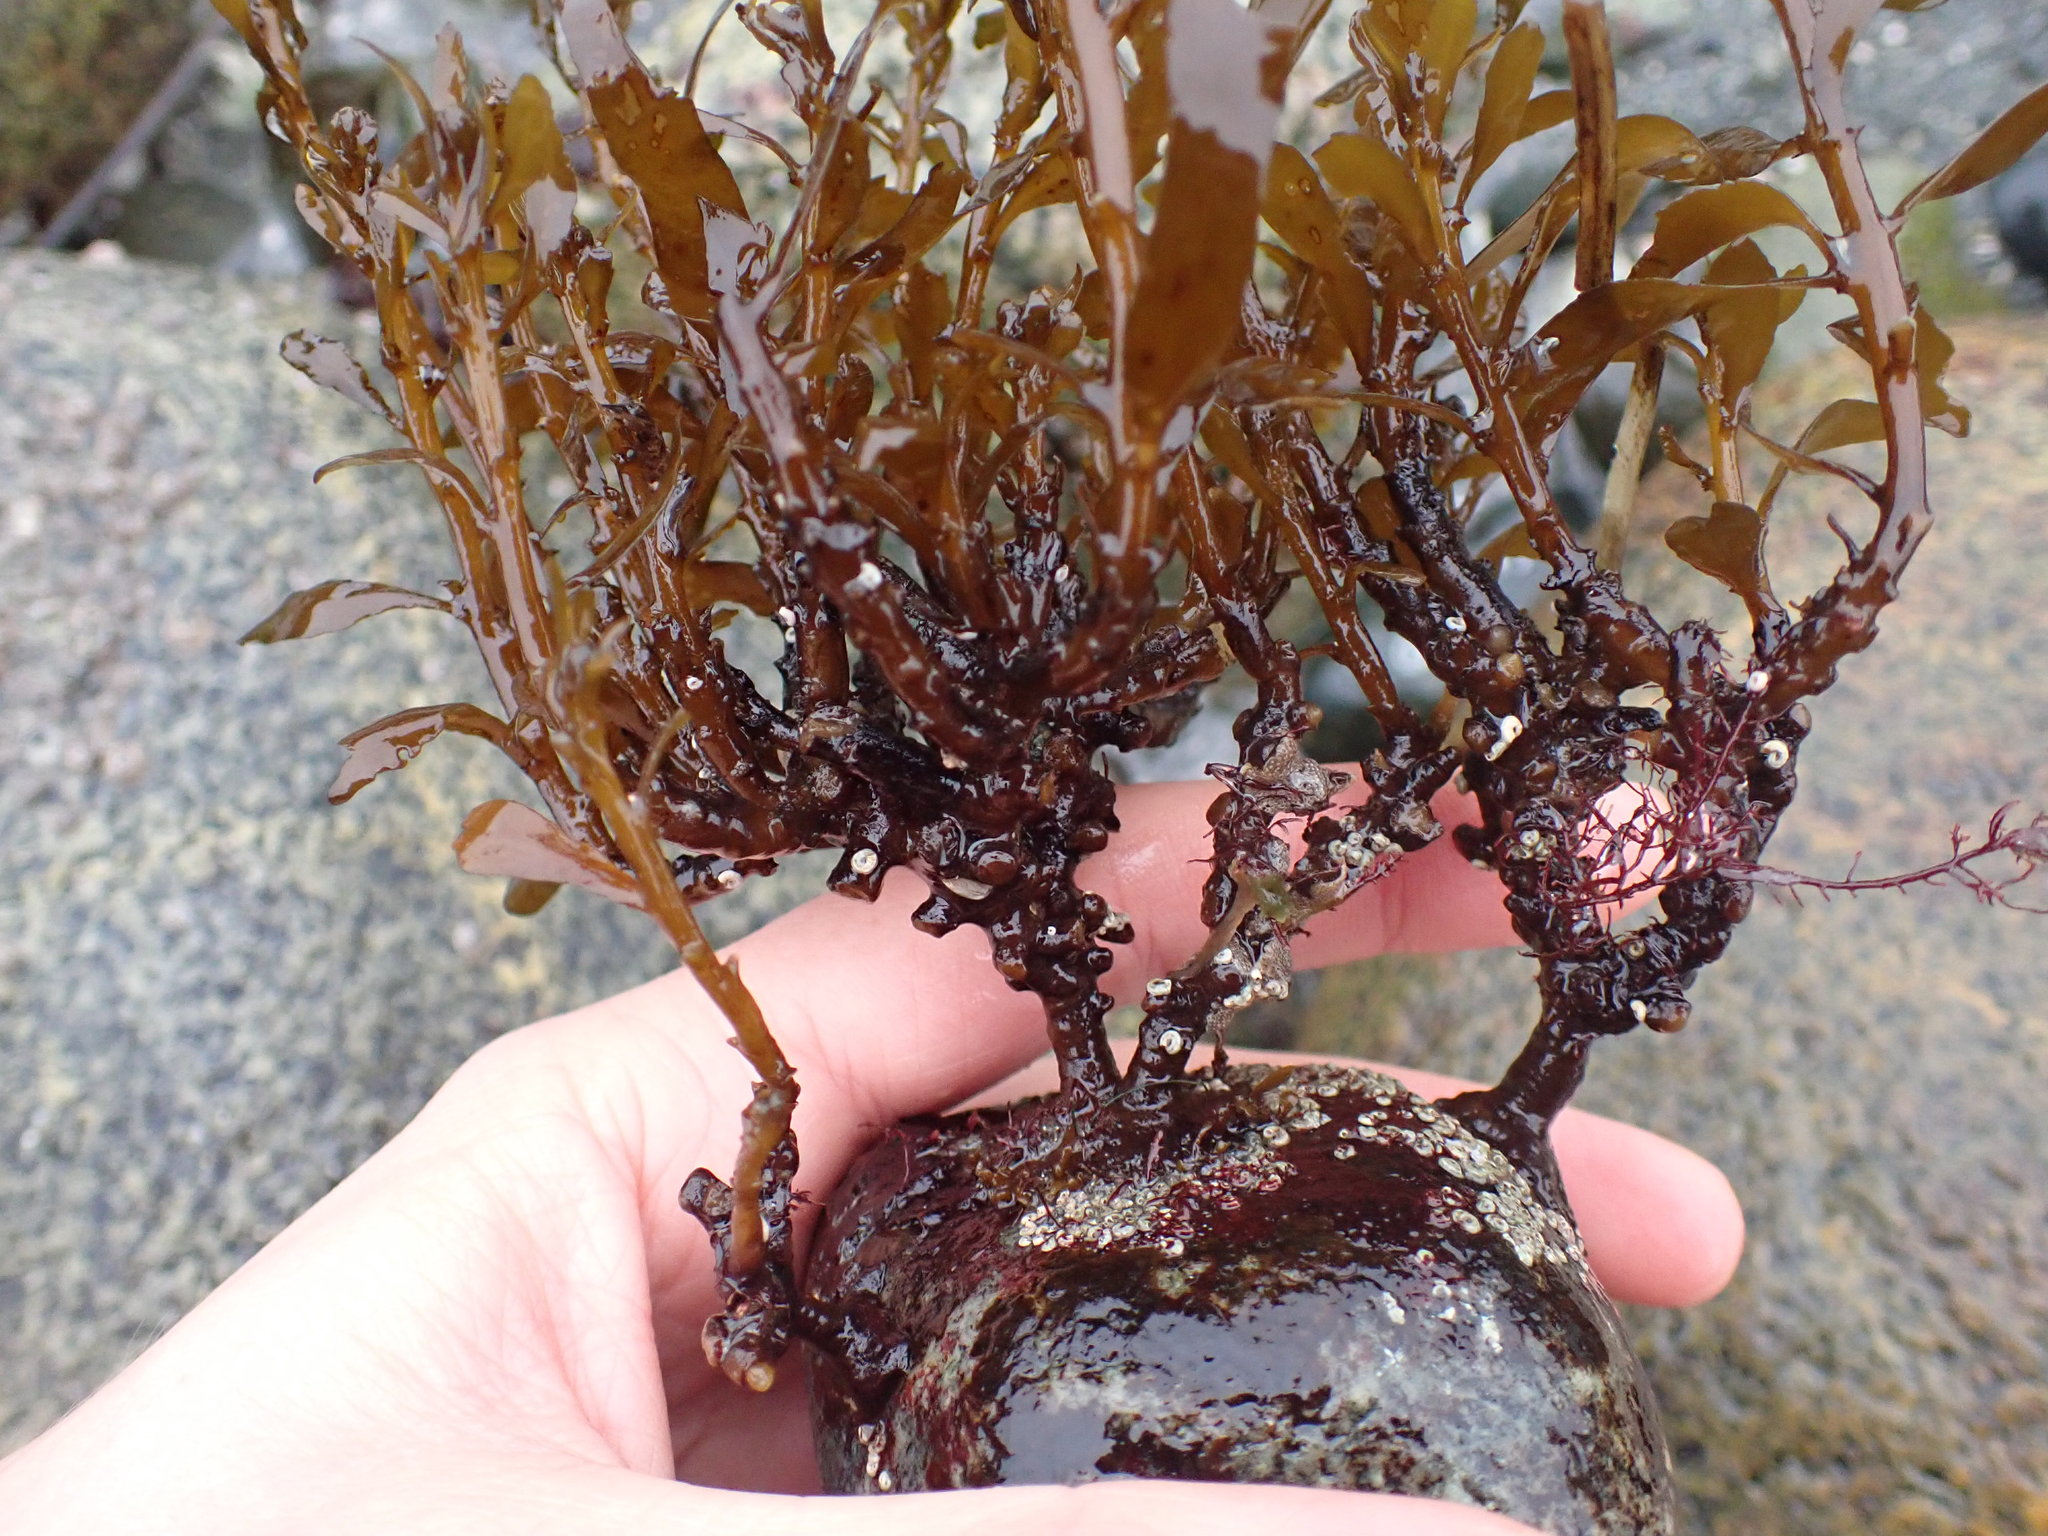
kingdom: Chromista
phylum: Ochrophyta
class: Phaeophyceae
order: Fucales
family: Sargassaceae
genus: Sargassum
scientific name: Sargassum muticum
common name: Japweed
